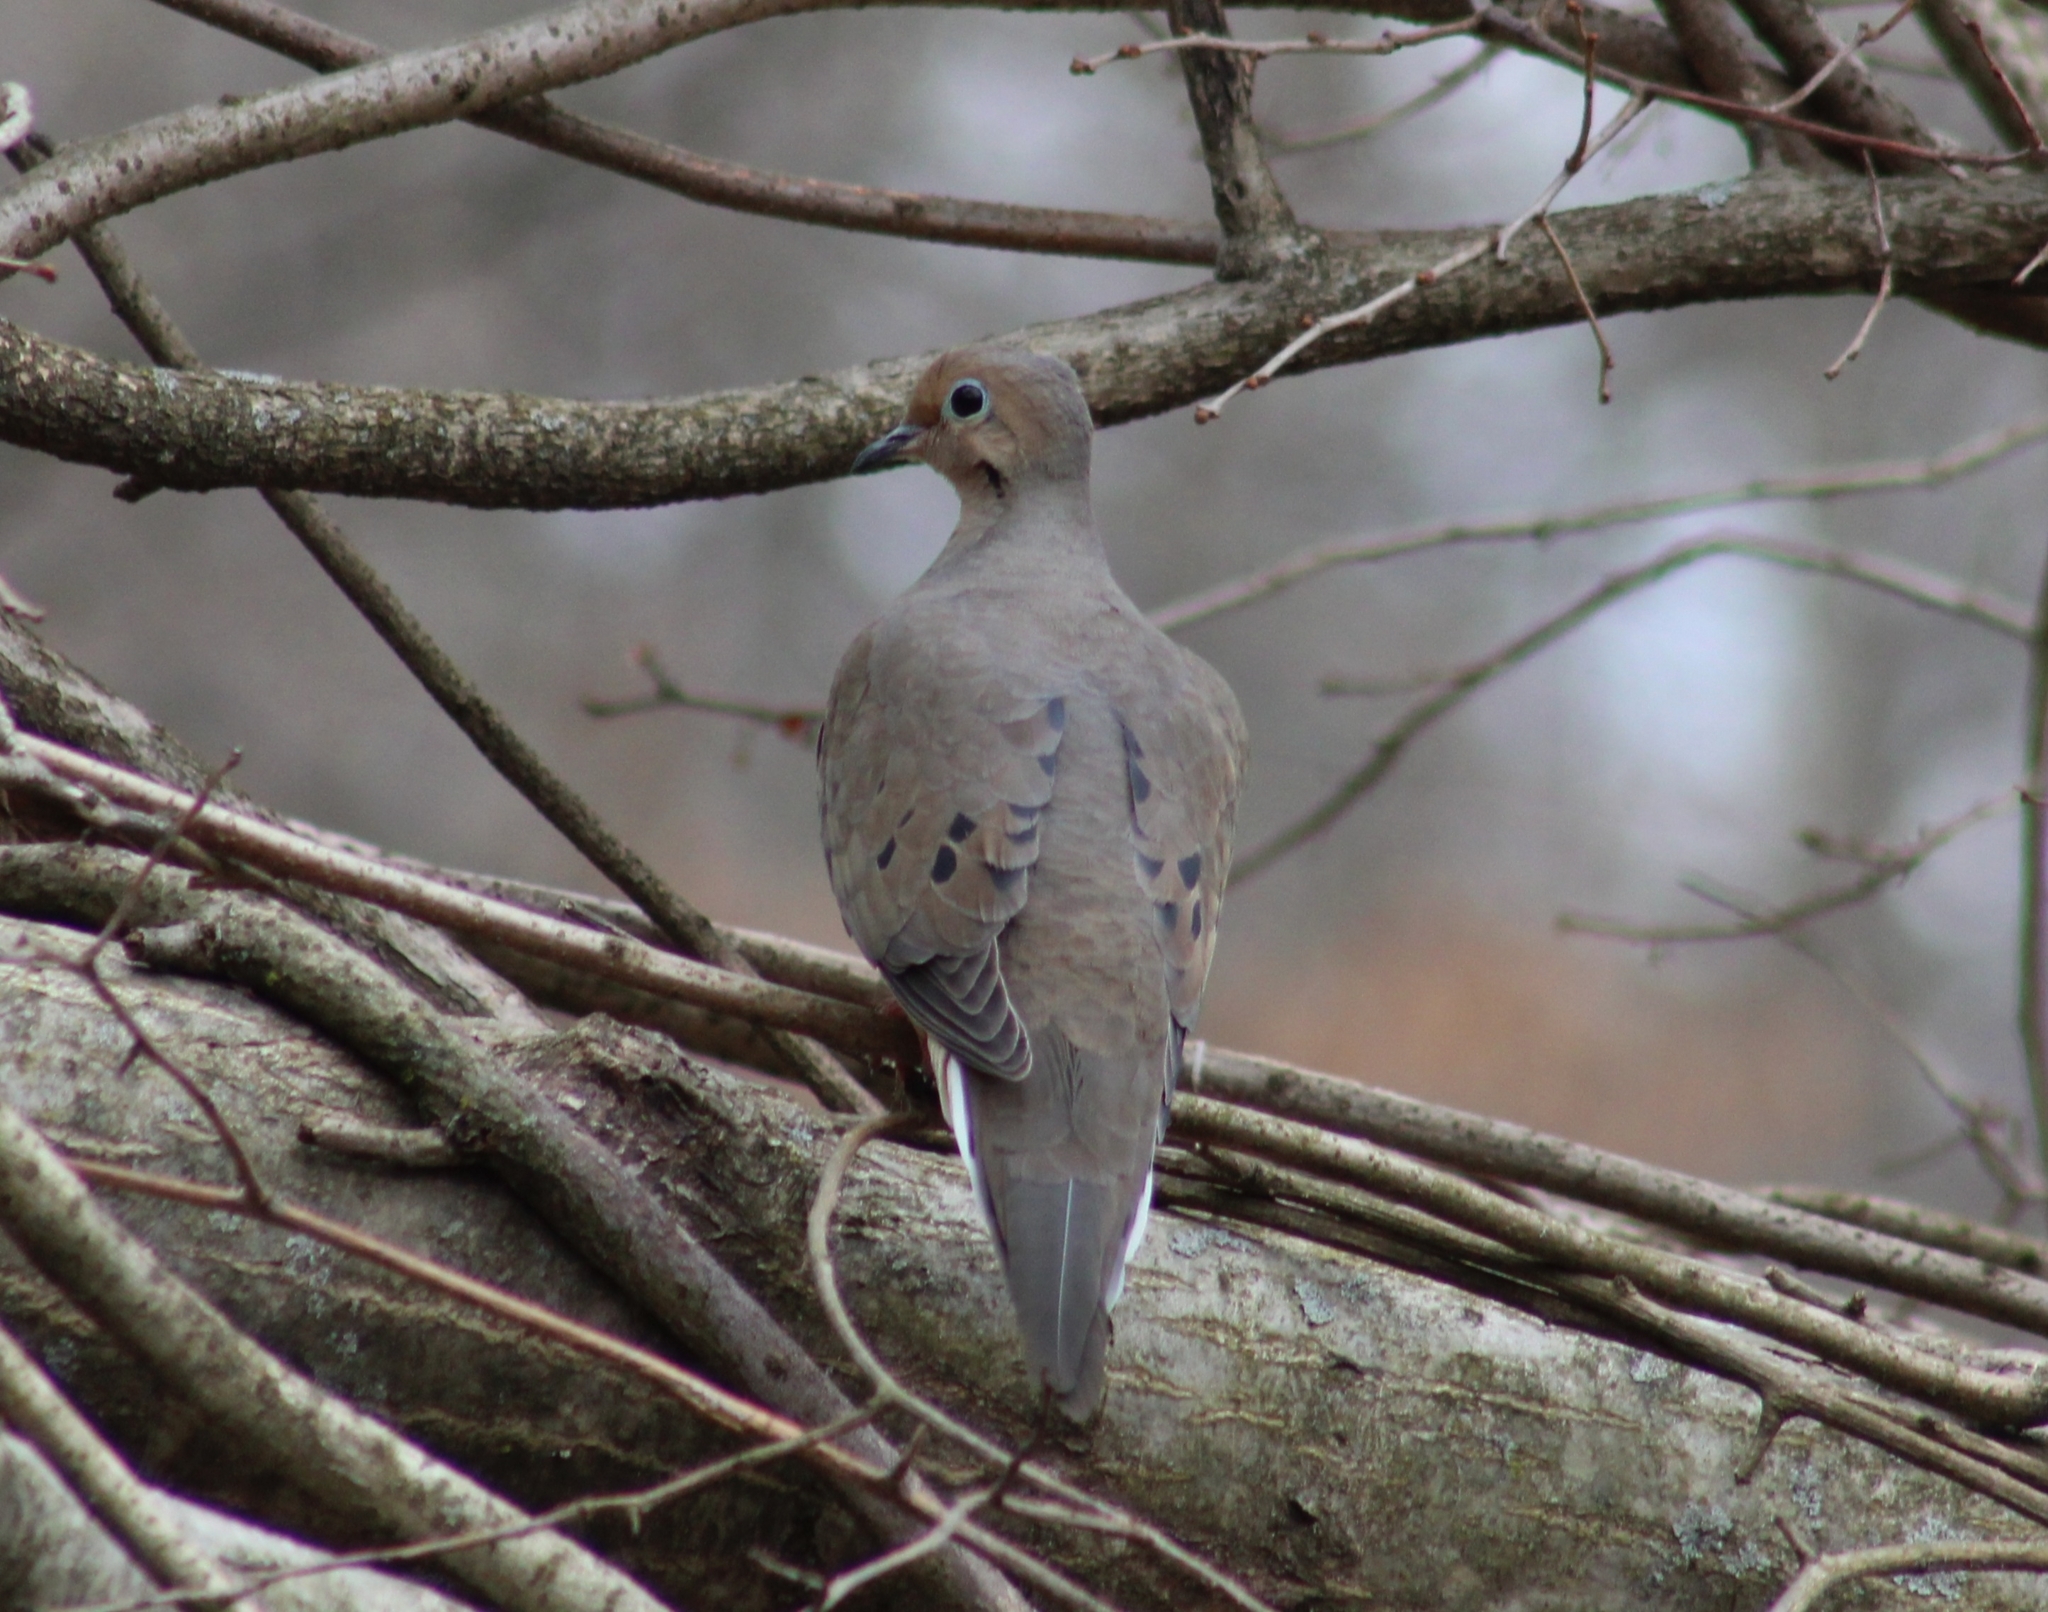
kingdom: Animalia
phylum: Chordata
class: Aves
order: Columbiformes
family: Columbidae
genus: Zenaida
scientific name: Zenaida macroura
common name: Mourning dove
